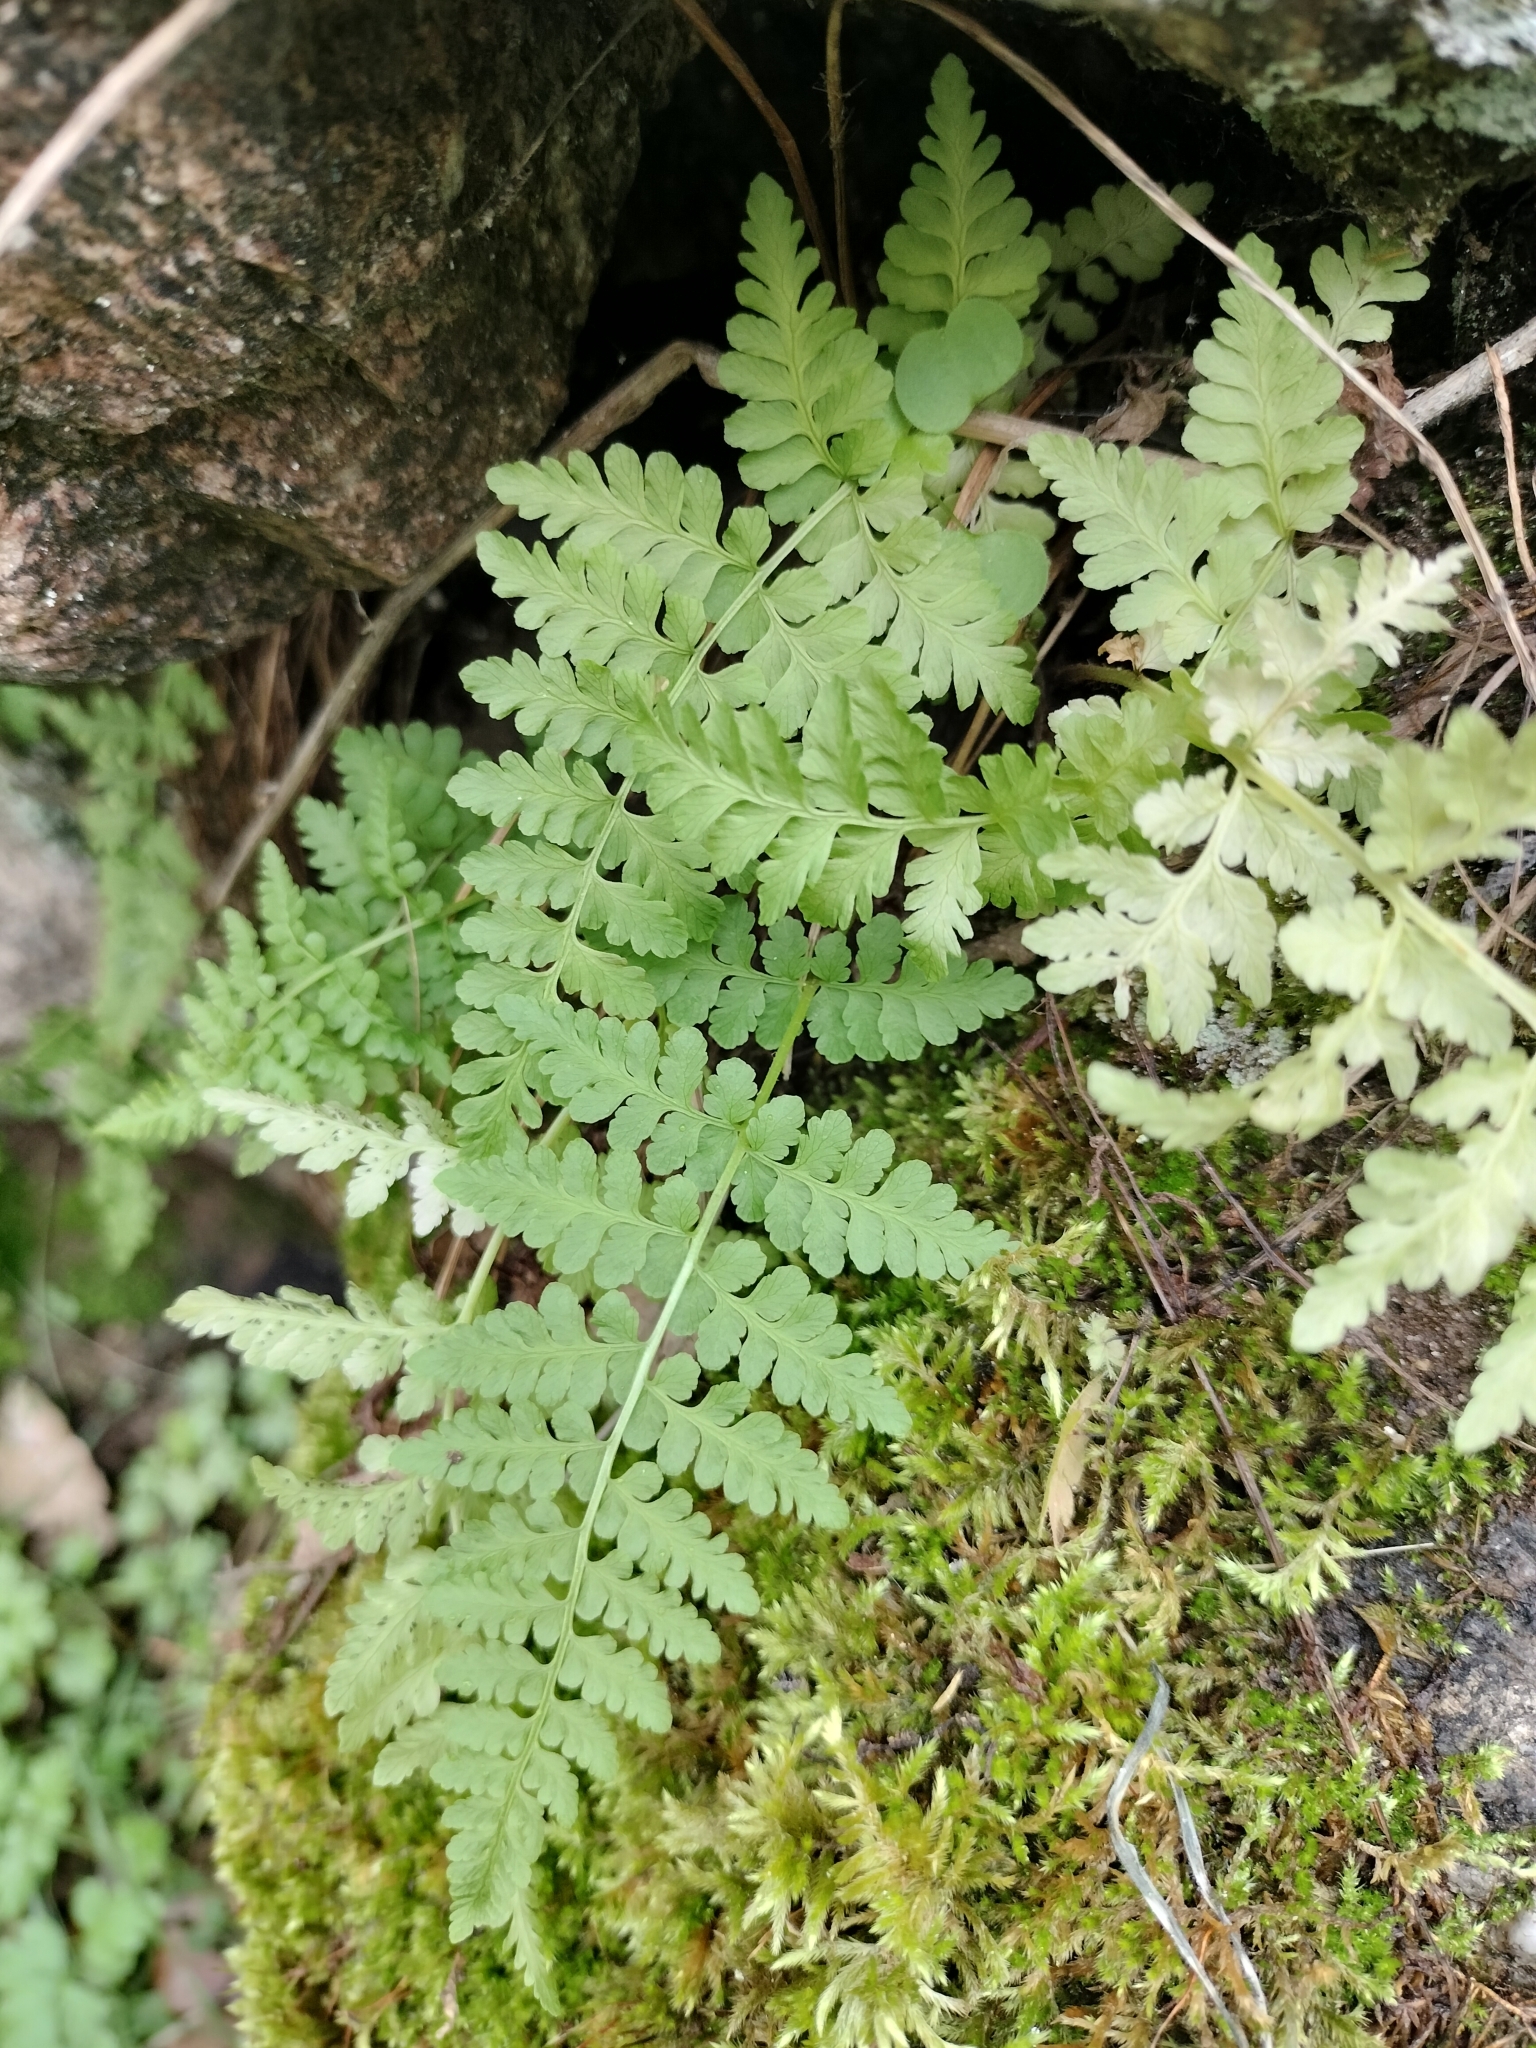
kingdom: Plantae
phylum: Tracheophyta
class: Polypodiopsida
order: Polypodiales
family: Cystopteridaceae
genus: Cystopteris
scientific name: Cystopteris fragilis
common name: Brittle bladder fern
